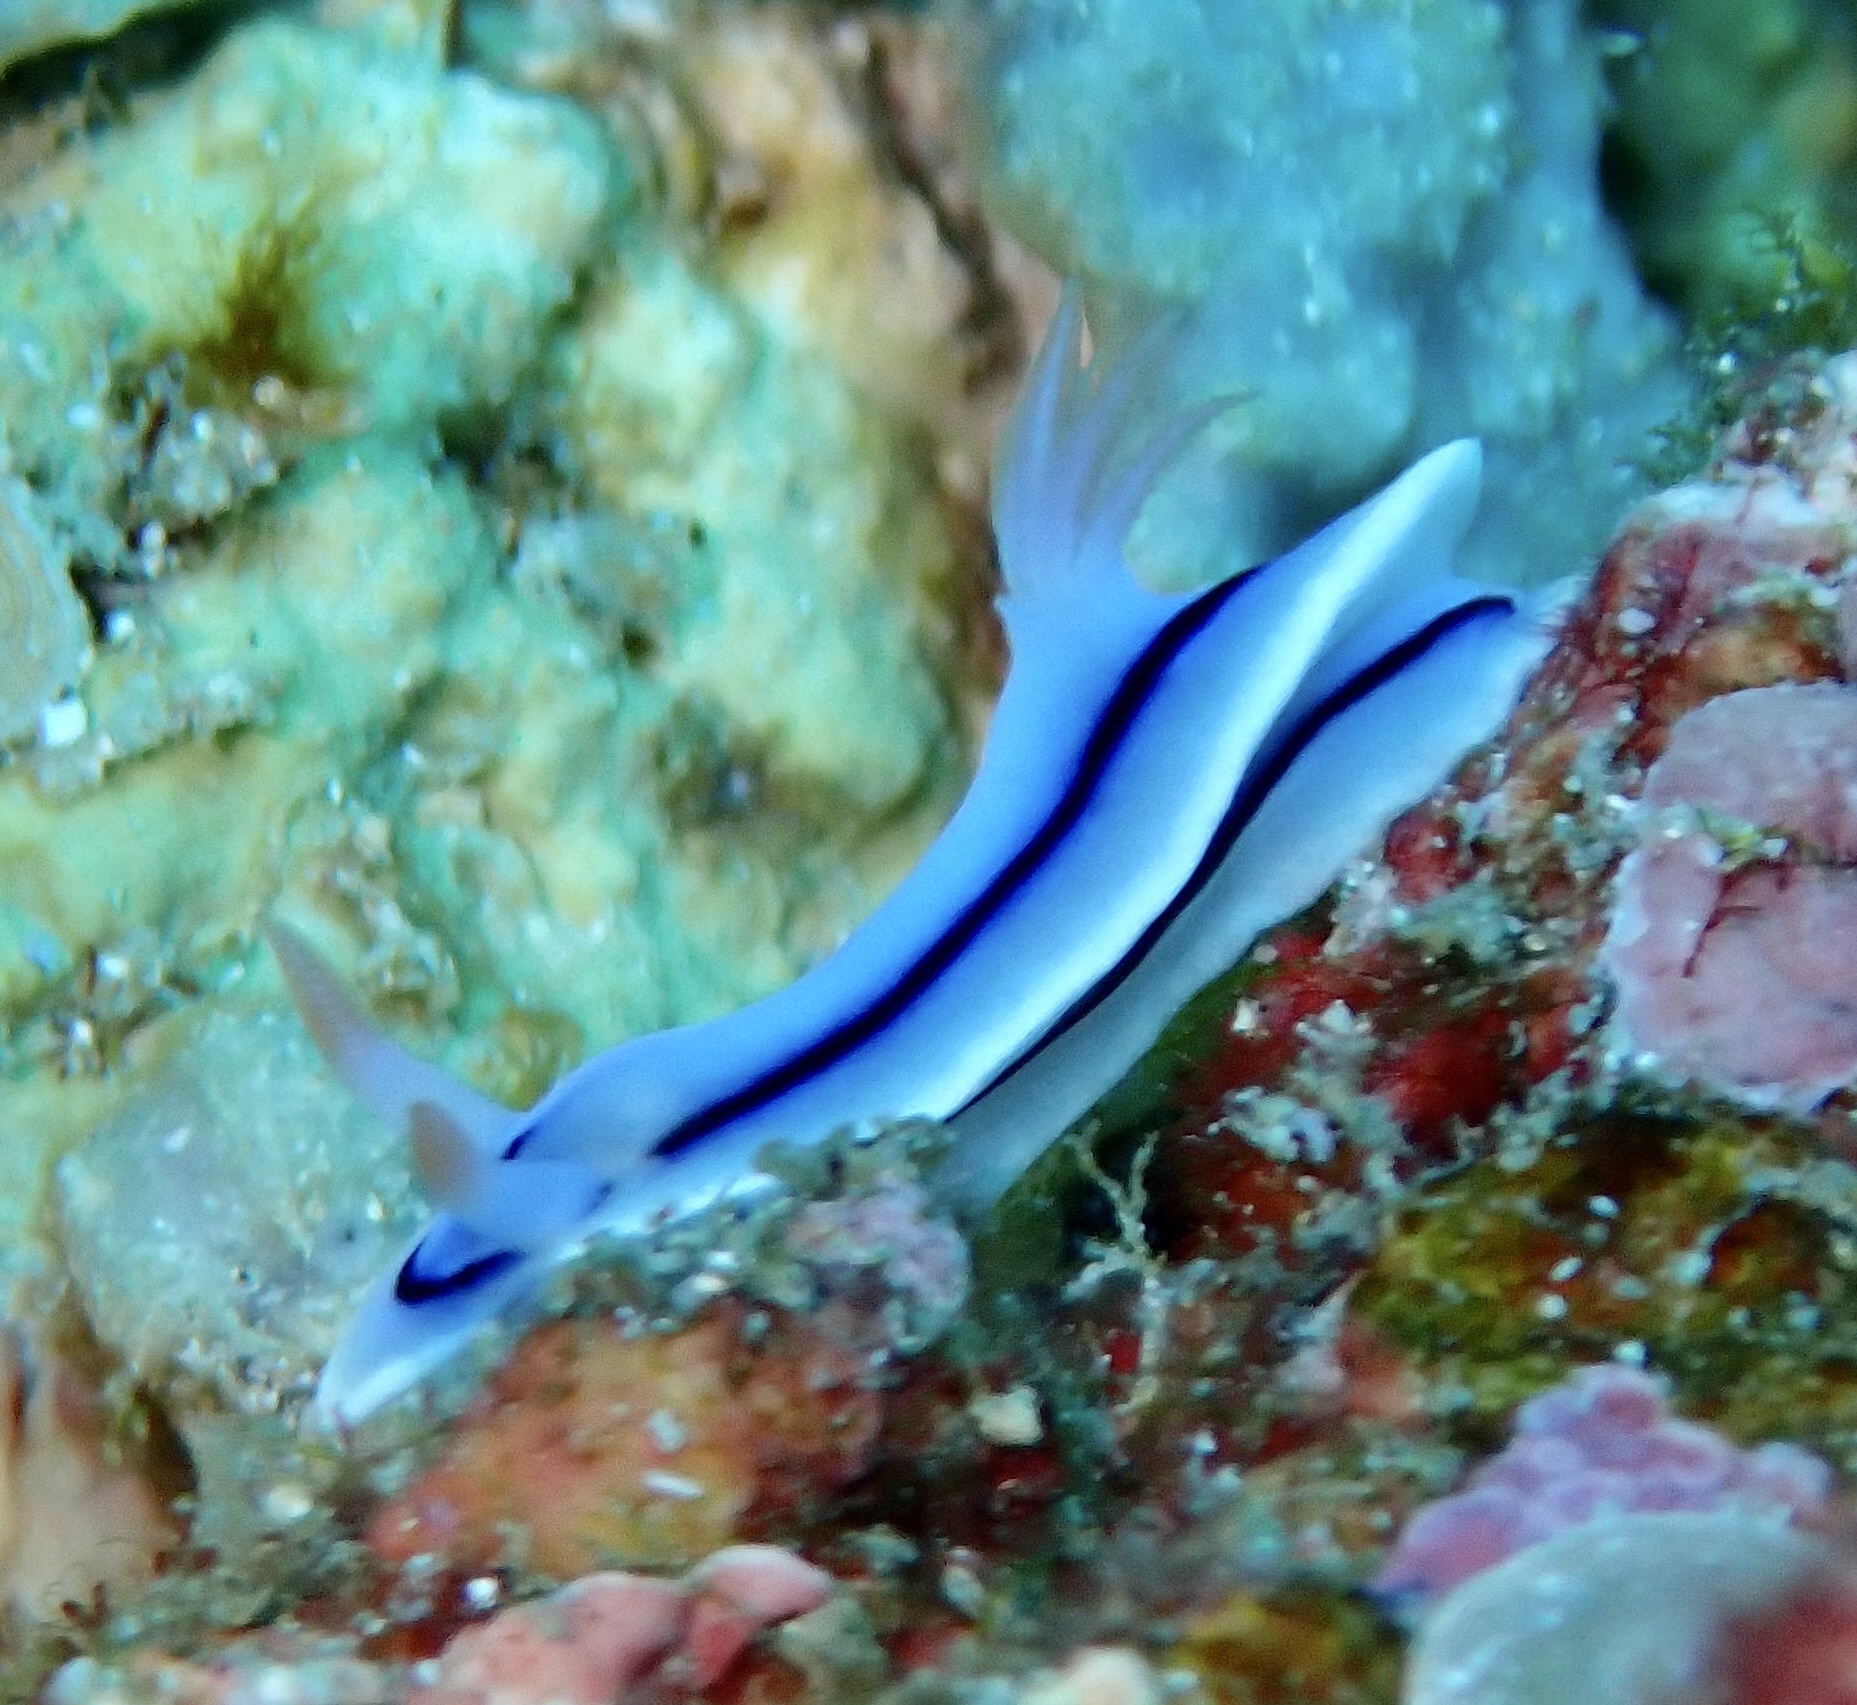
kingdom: Animalia
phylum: Mollusca
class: Gastropoda
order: Nudibranchia
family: Chromodorididae
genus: Chromodoris
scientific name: Chromodoris lochi
